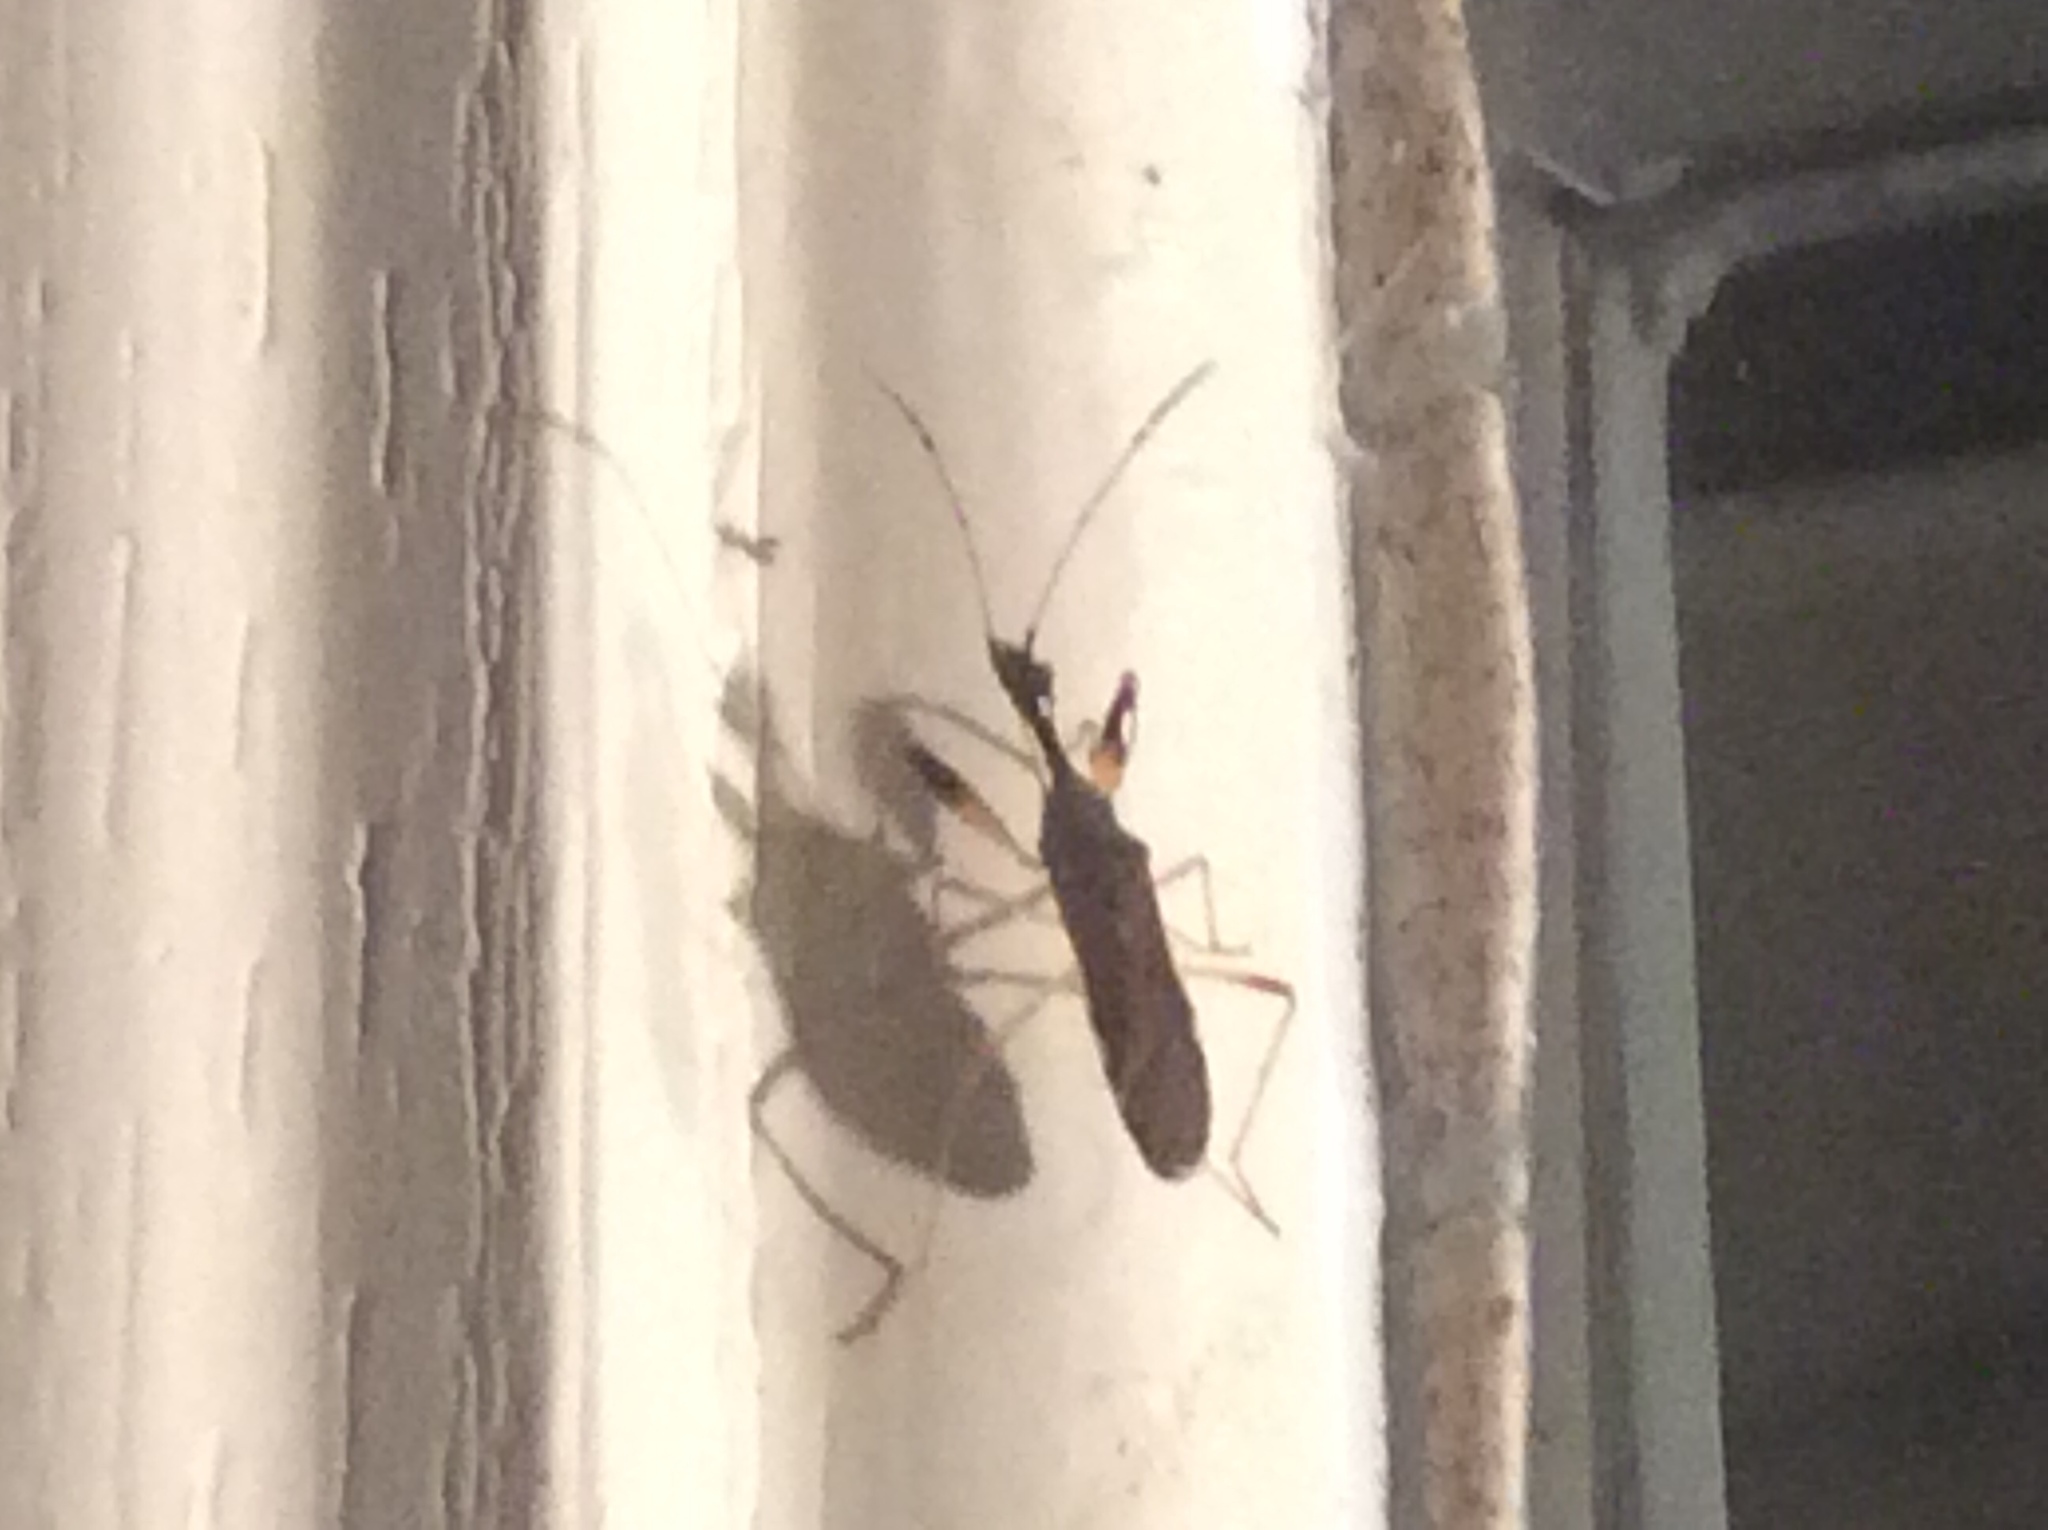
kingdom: Animalia
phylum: Arthropoda
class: Insecta
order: Hemiptera
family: Rhyparochromidae
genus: Myodocha
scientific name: Myodocha serripes
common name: Long-necked seed bug
